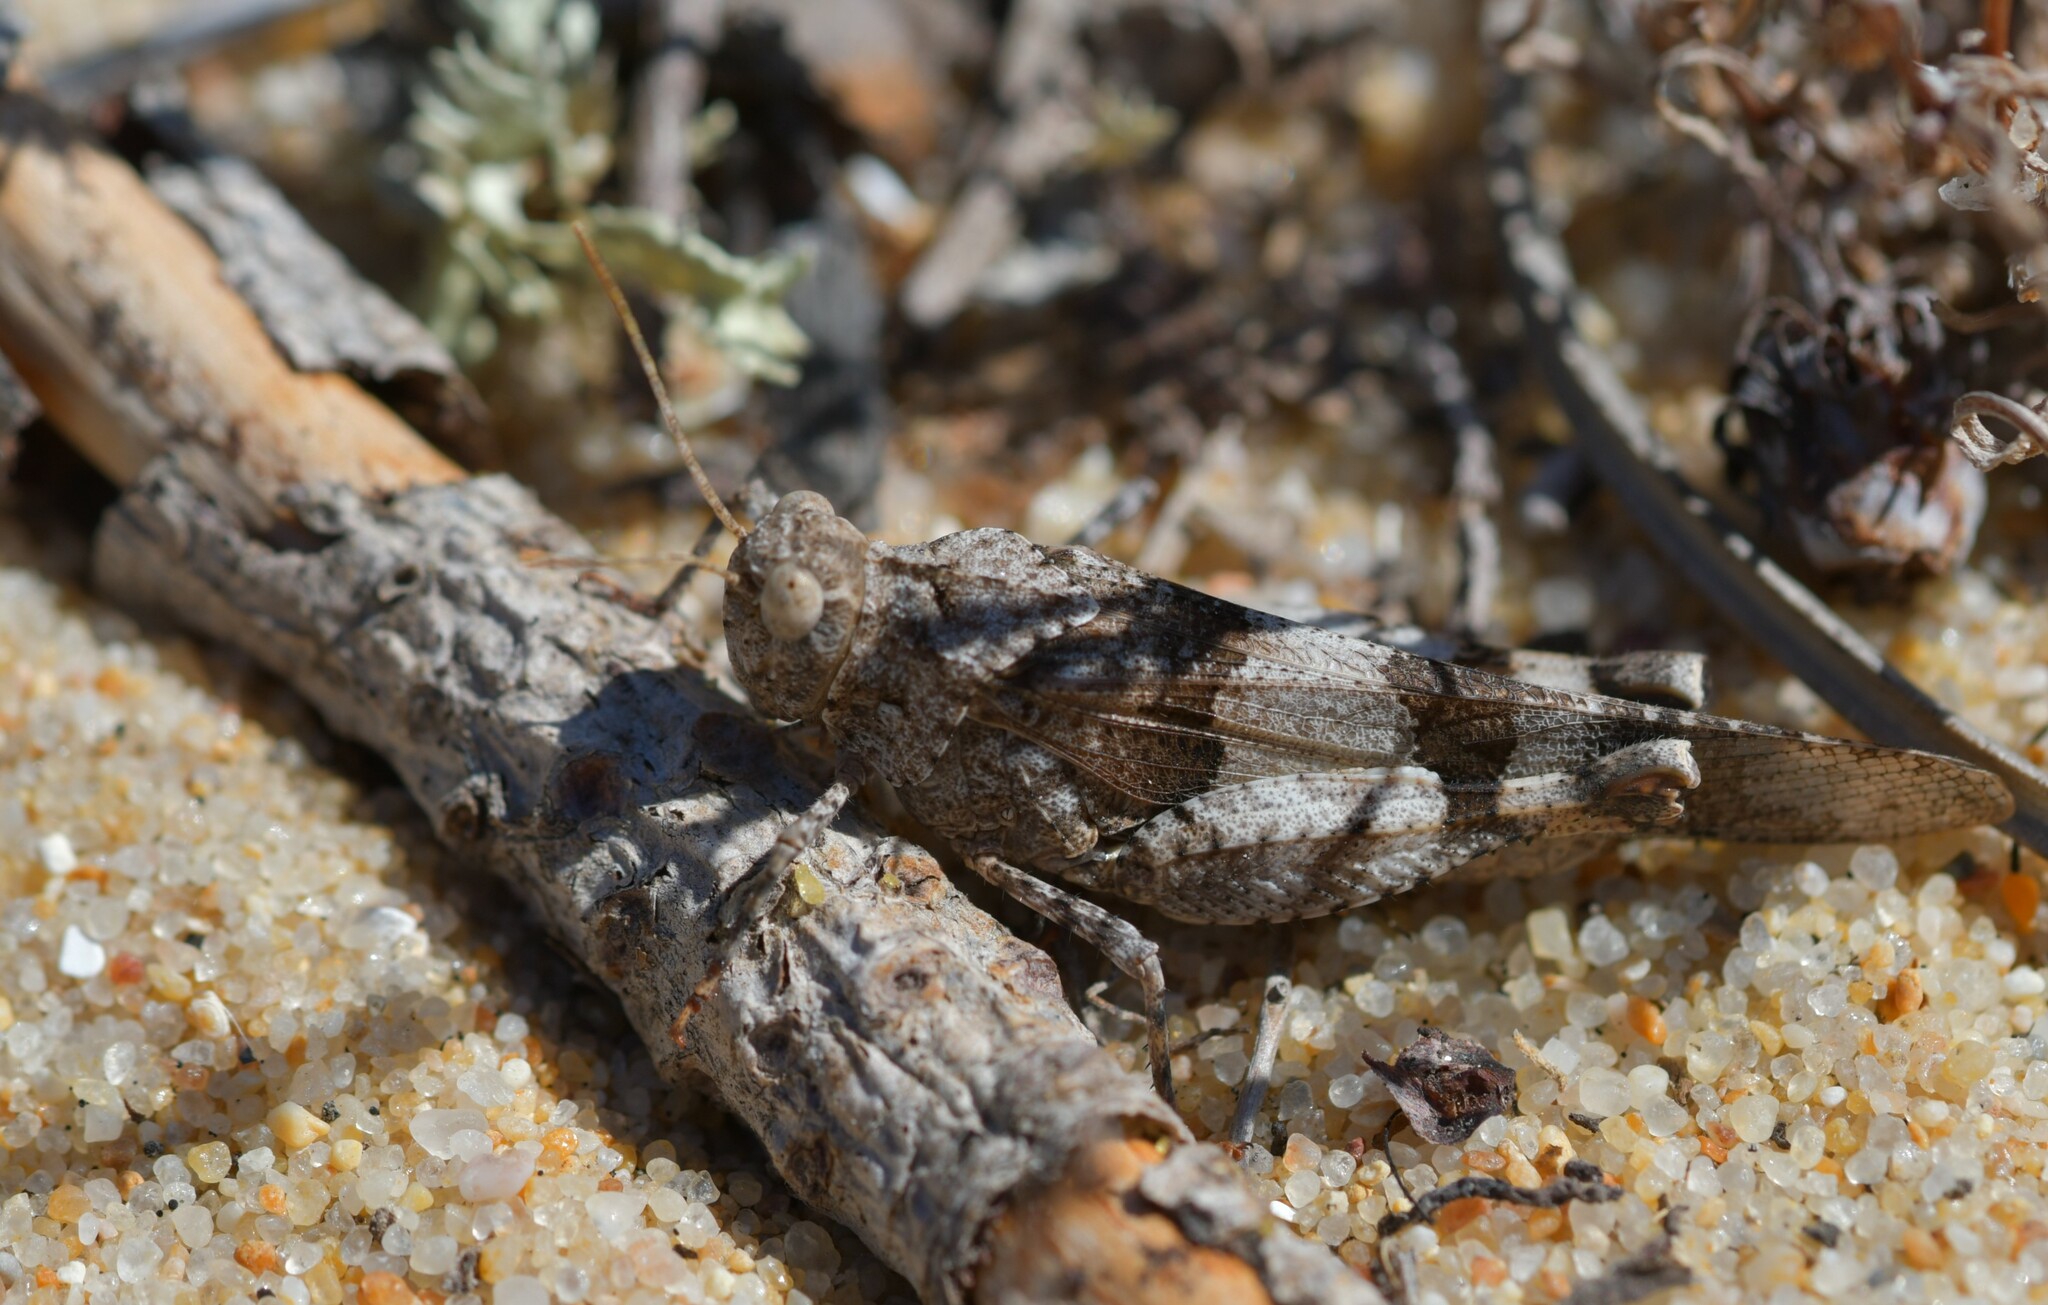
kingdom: Animalia
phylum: Arthropoda
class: Insecta
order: Orthoptera
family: Acrididae
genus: Oedipoda
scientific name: Oedipoda caerulescens
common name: Blue-winged grasshopper
